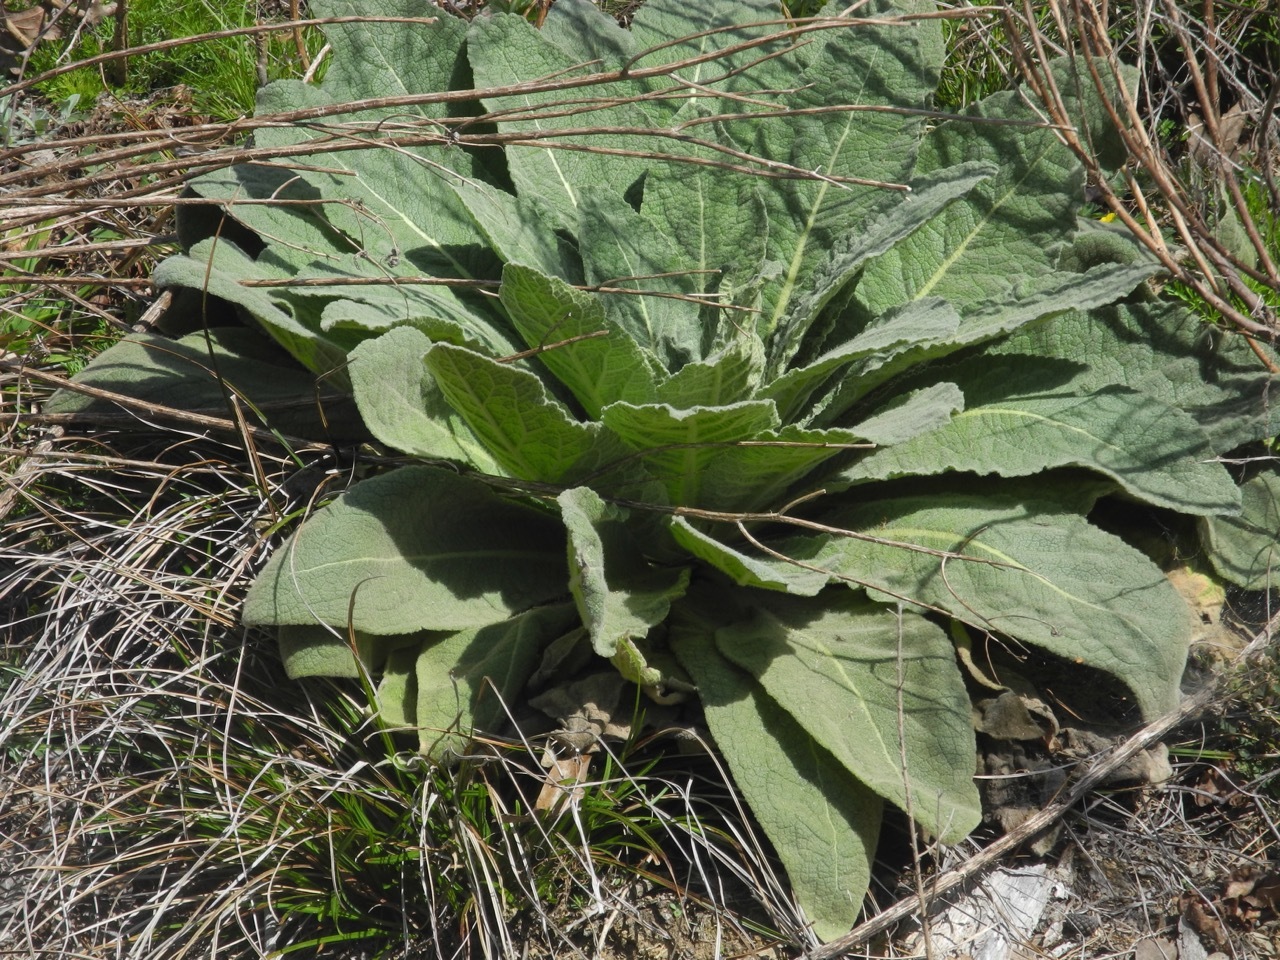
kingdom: Plantae
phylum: Tracheophyta
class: Magnoliopsida
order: Lamiales
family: Scrophulariaceae
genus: Verbascum
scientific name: Verbascum thapsus
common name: Common mullein
